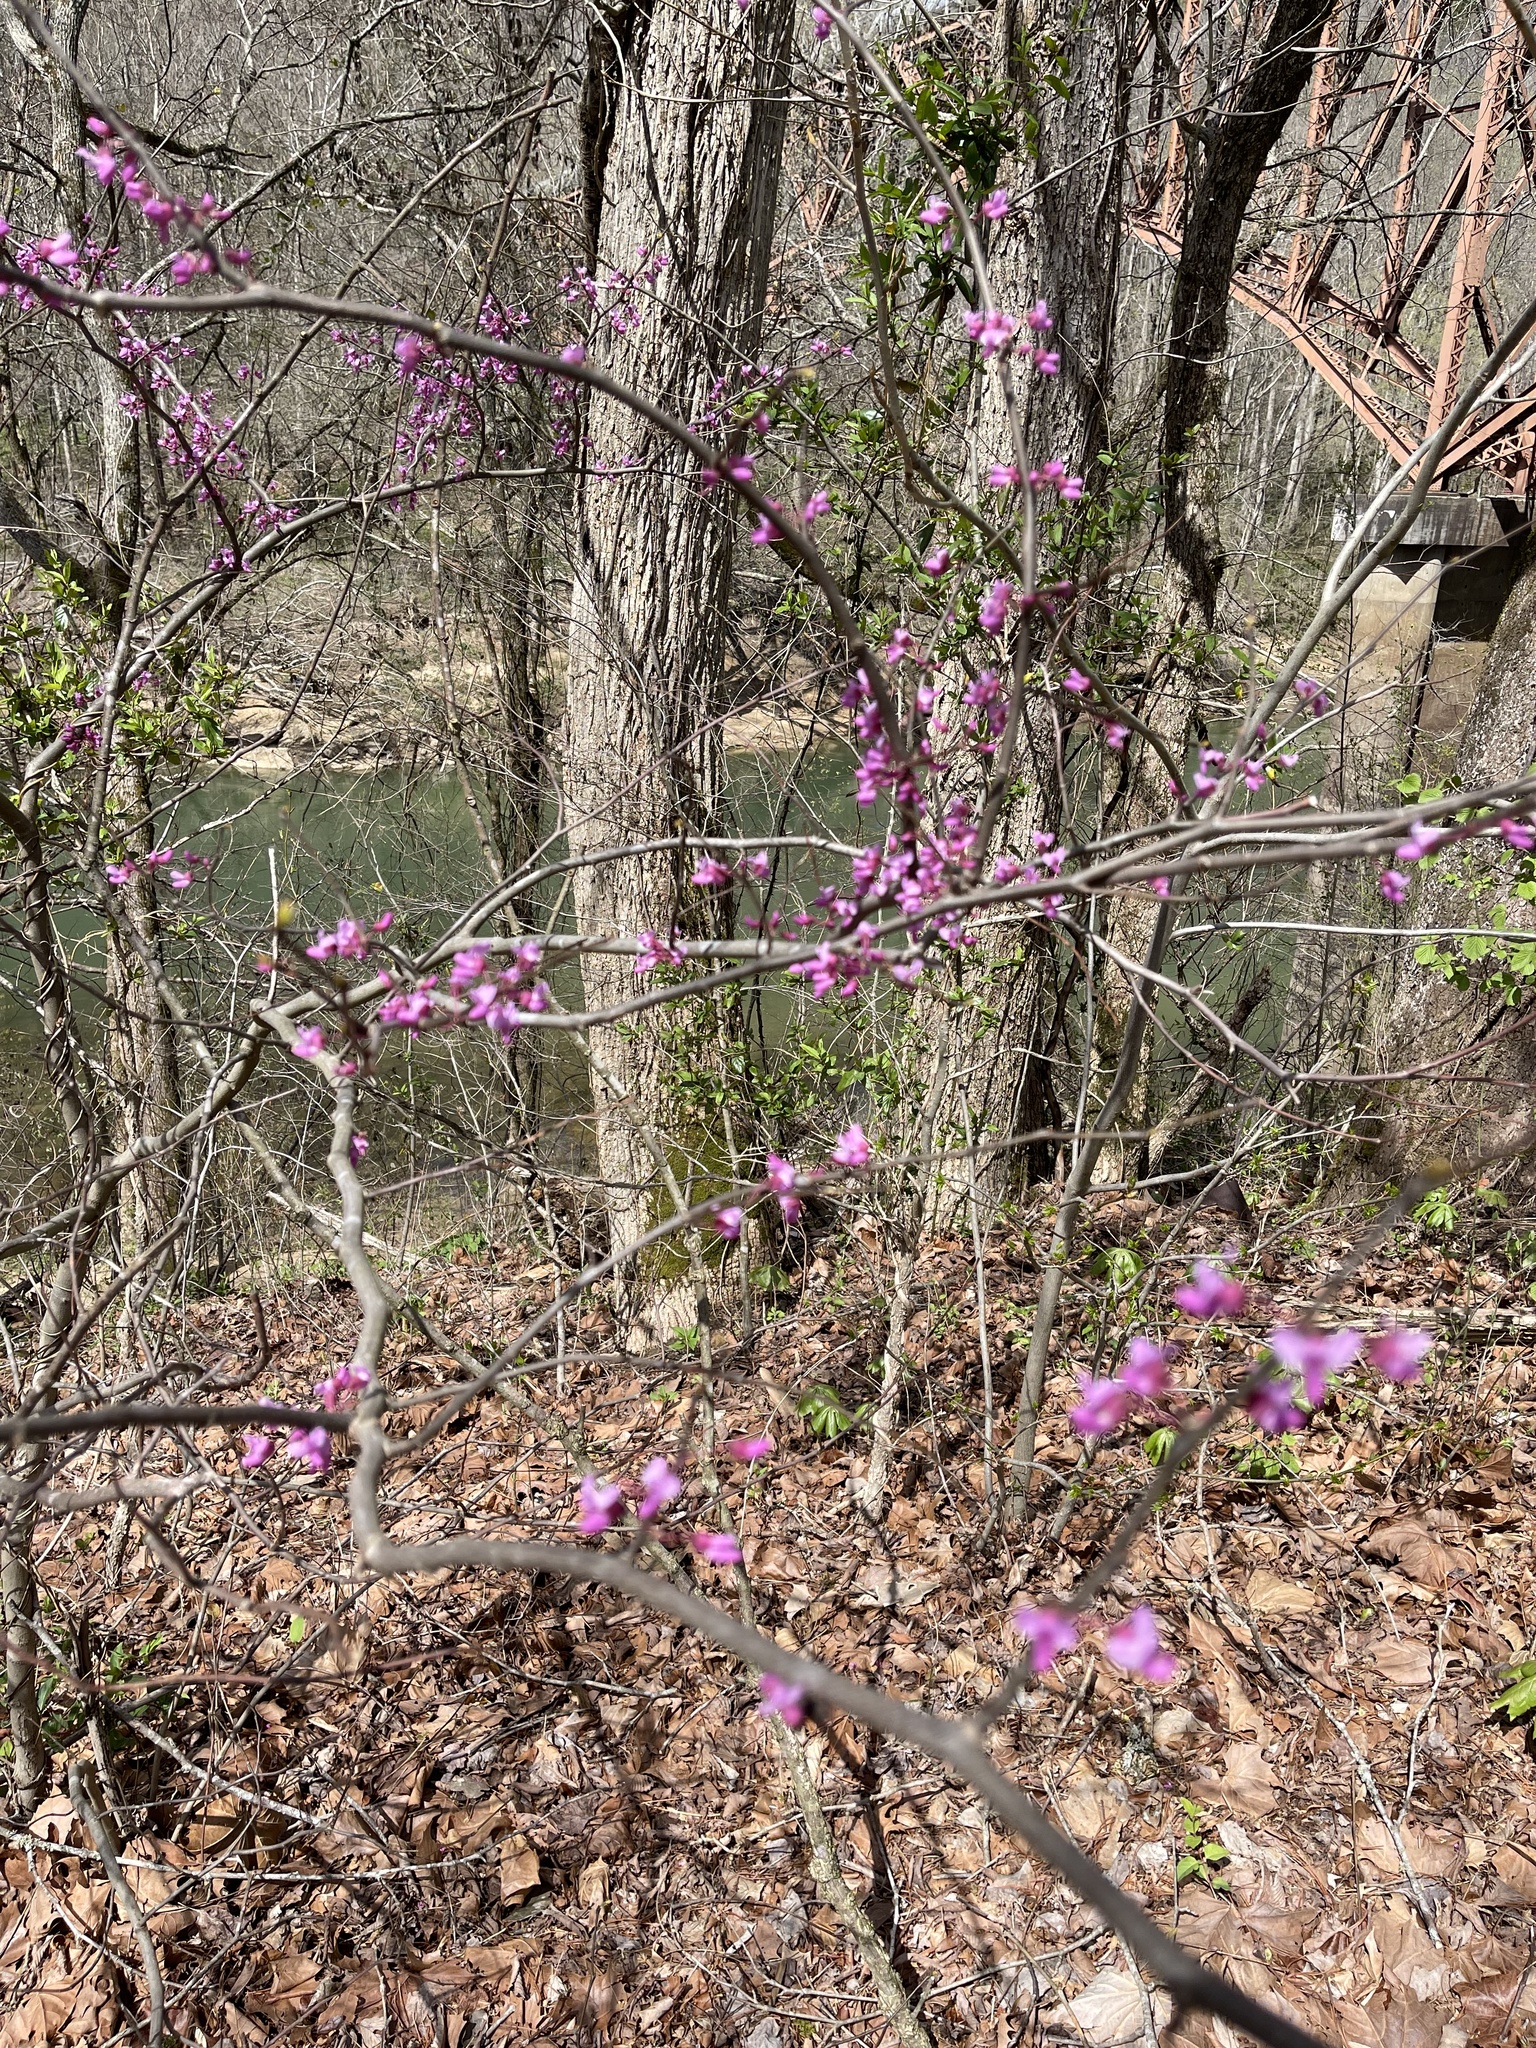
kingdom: Plantae
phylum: Tracheophyta
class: Magnoliopsida
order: Fabales
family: Fabaceae
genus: Cercis
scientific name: Cercis canadensis
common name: Eastern redbud
